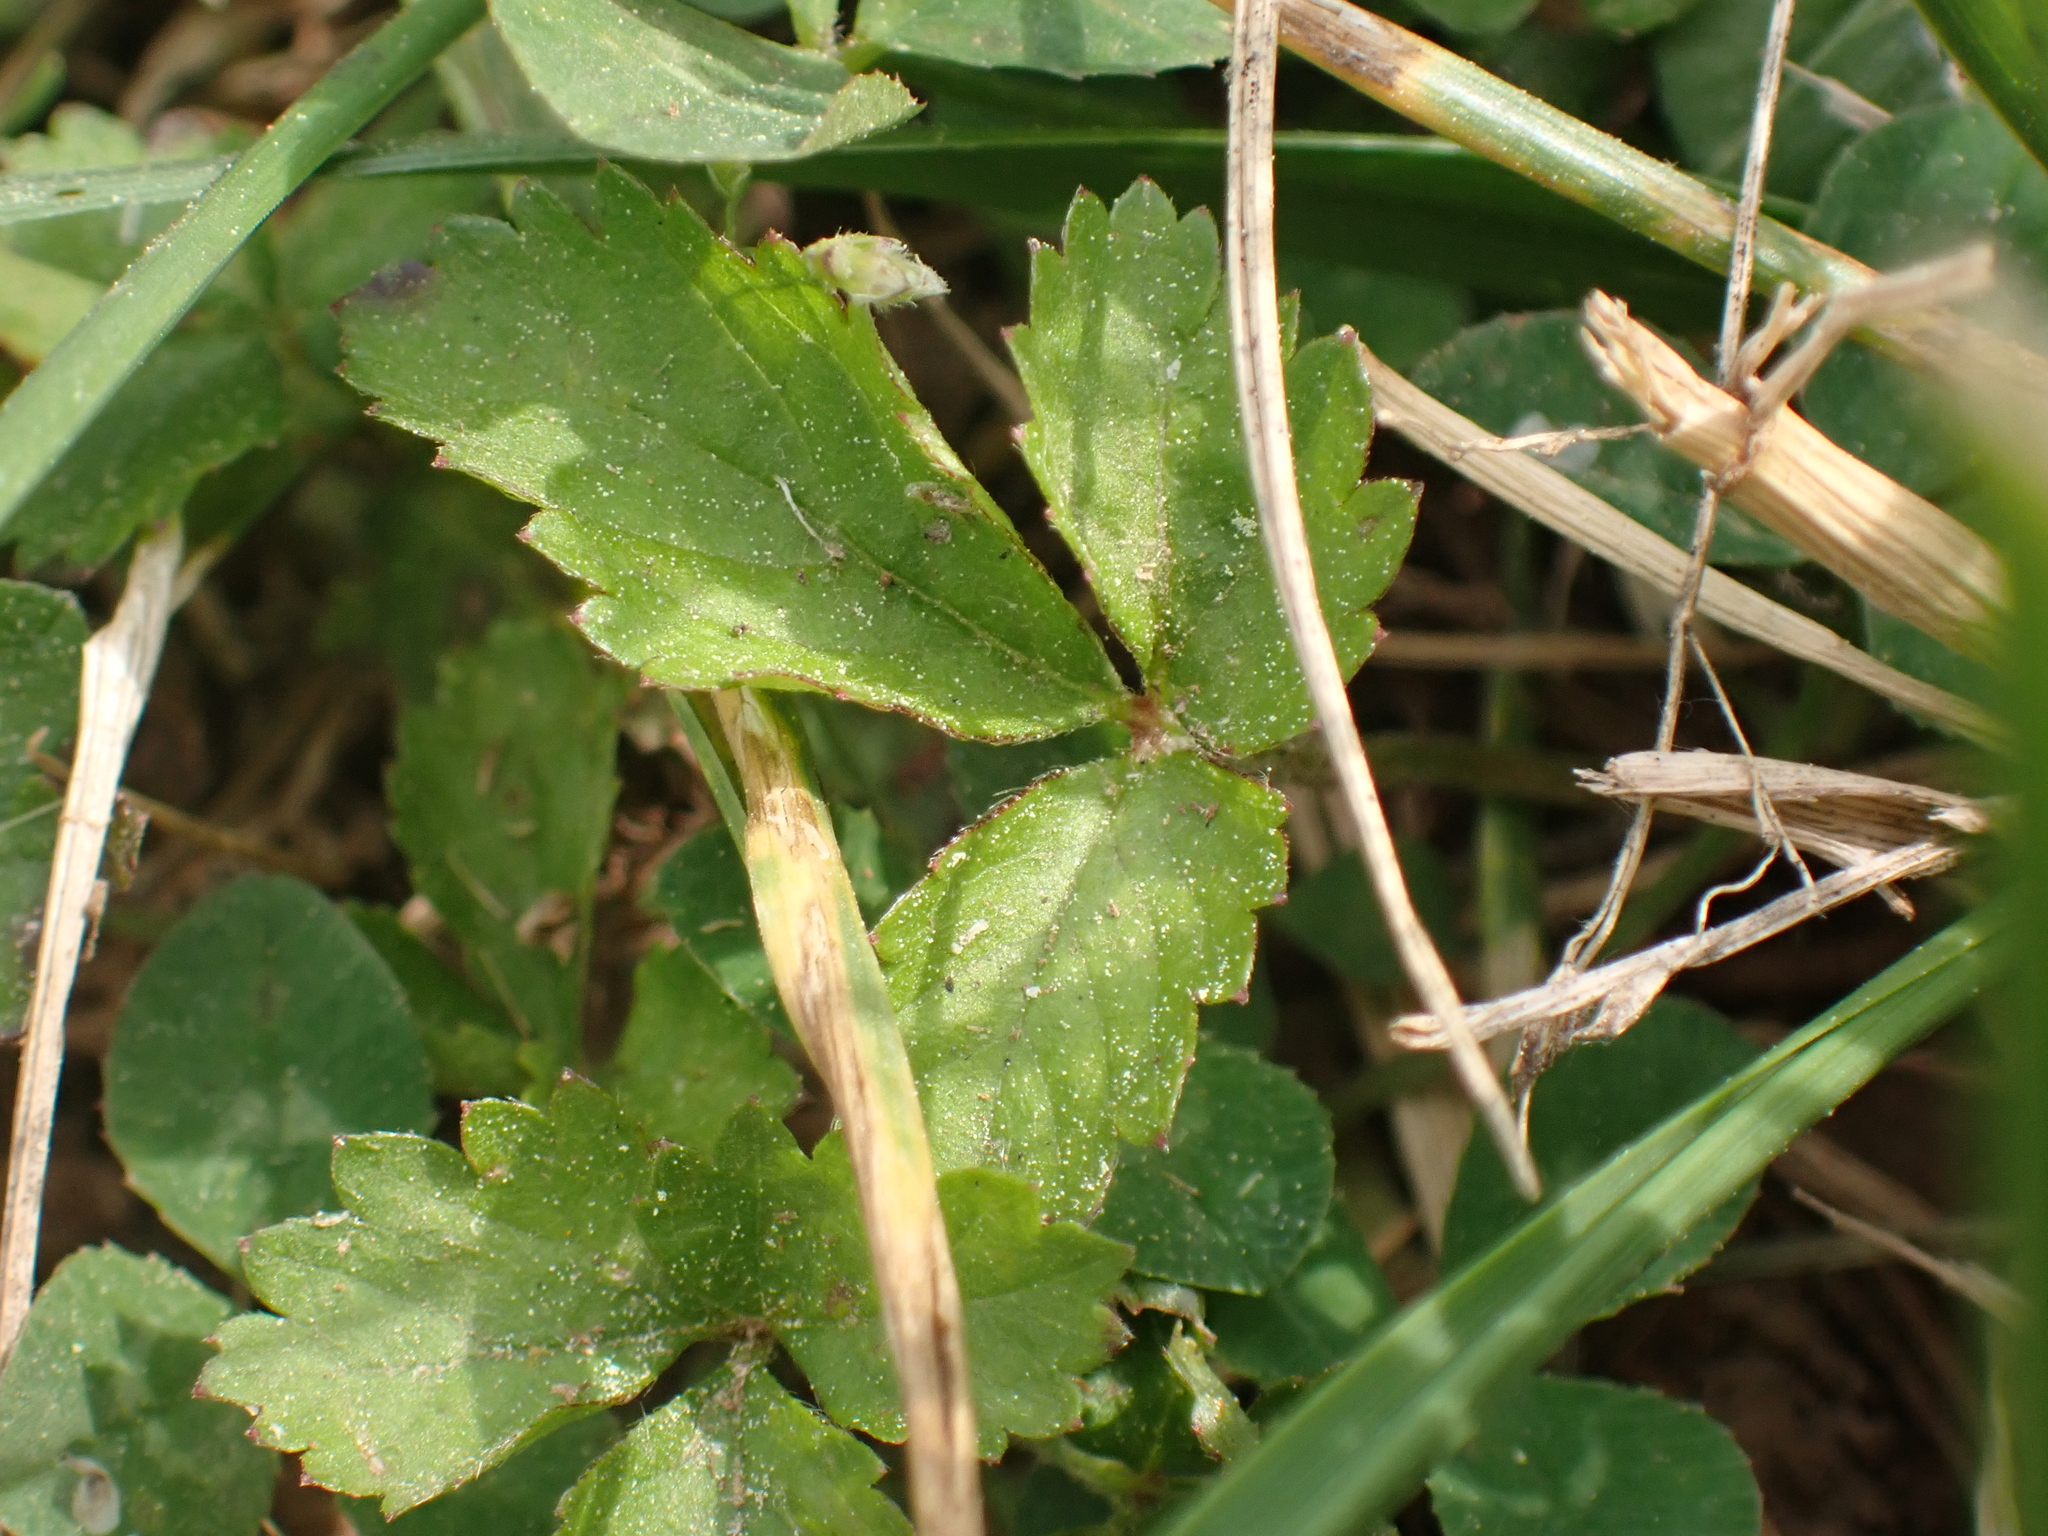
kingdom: Plantae
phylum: Tracheophyta
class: Magnoliopsida
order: Rosales
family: Rosaceae
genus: Potentilla
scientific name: Potentilla indica
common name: Yellow-flowered strawberry
